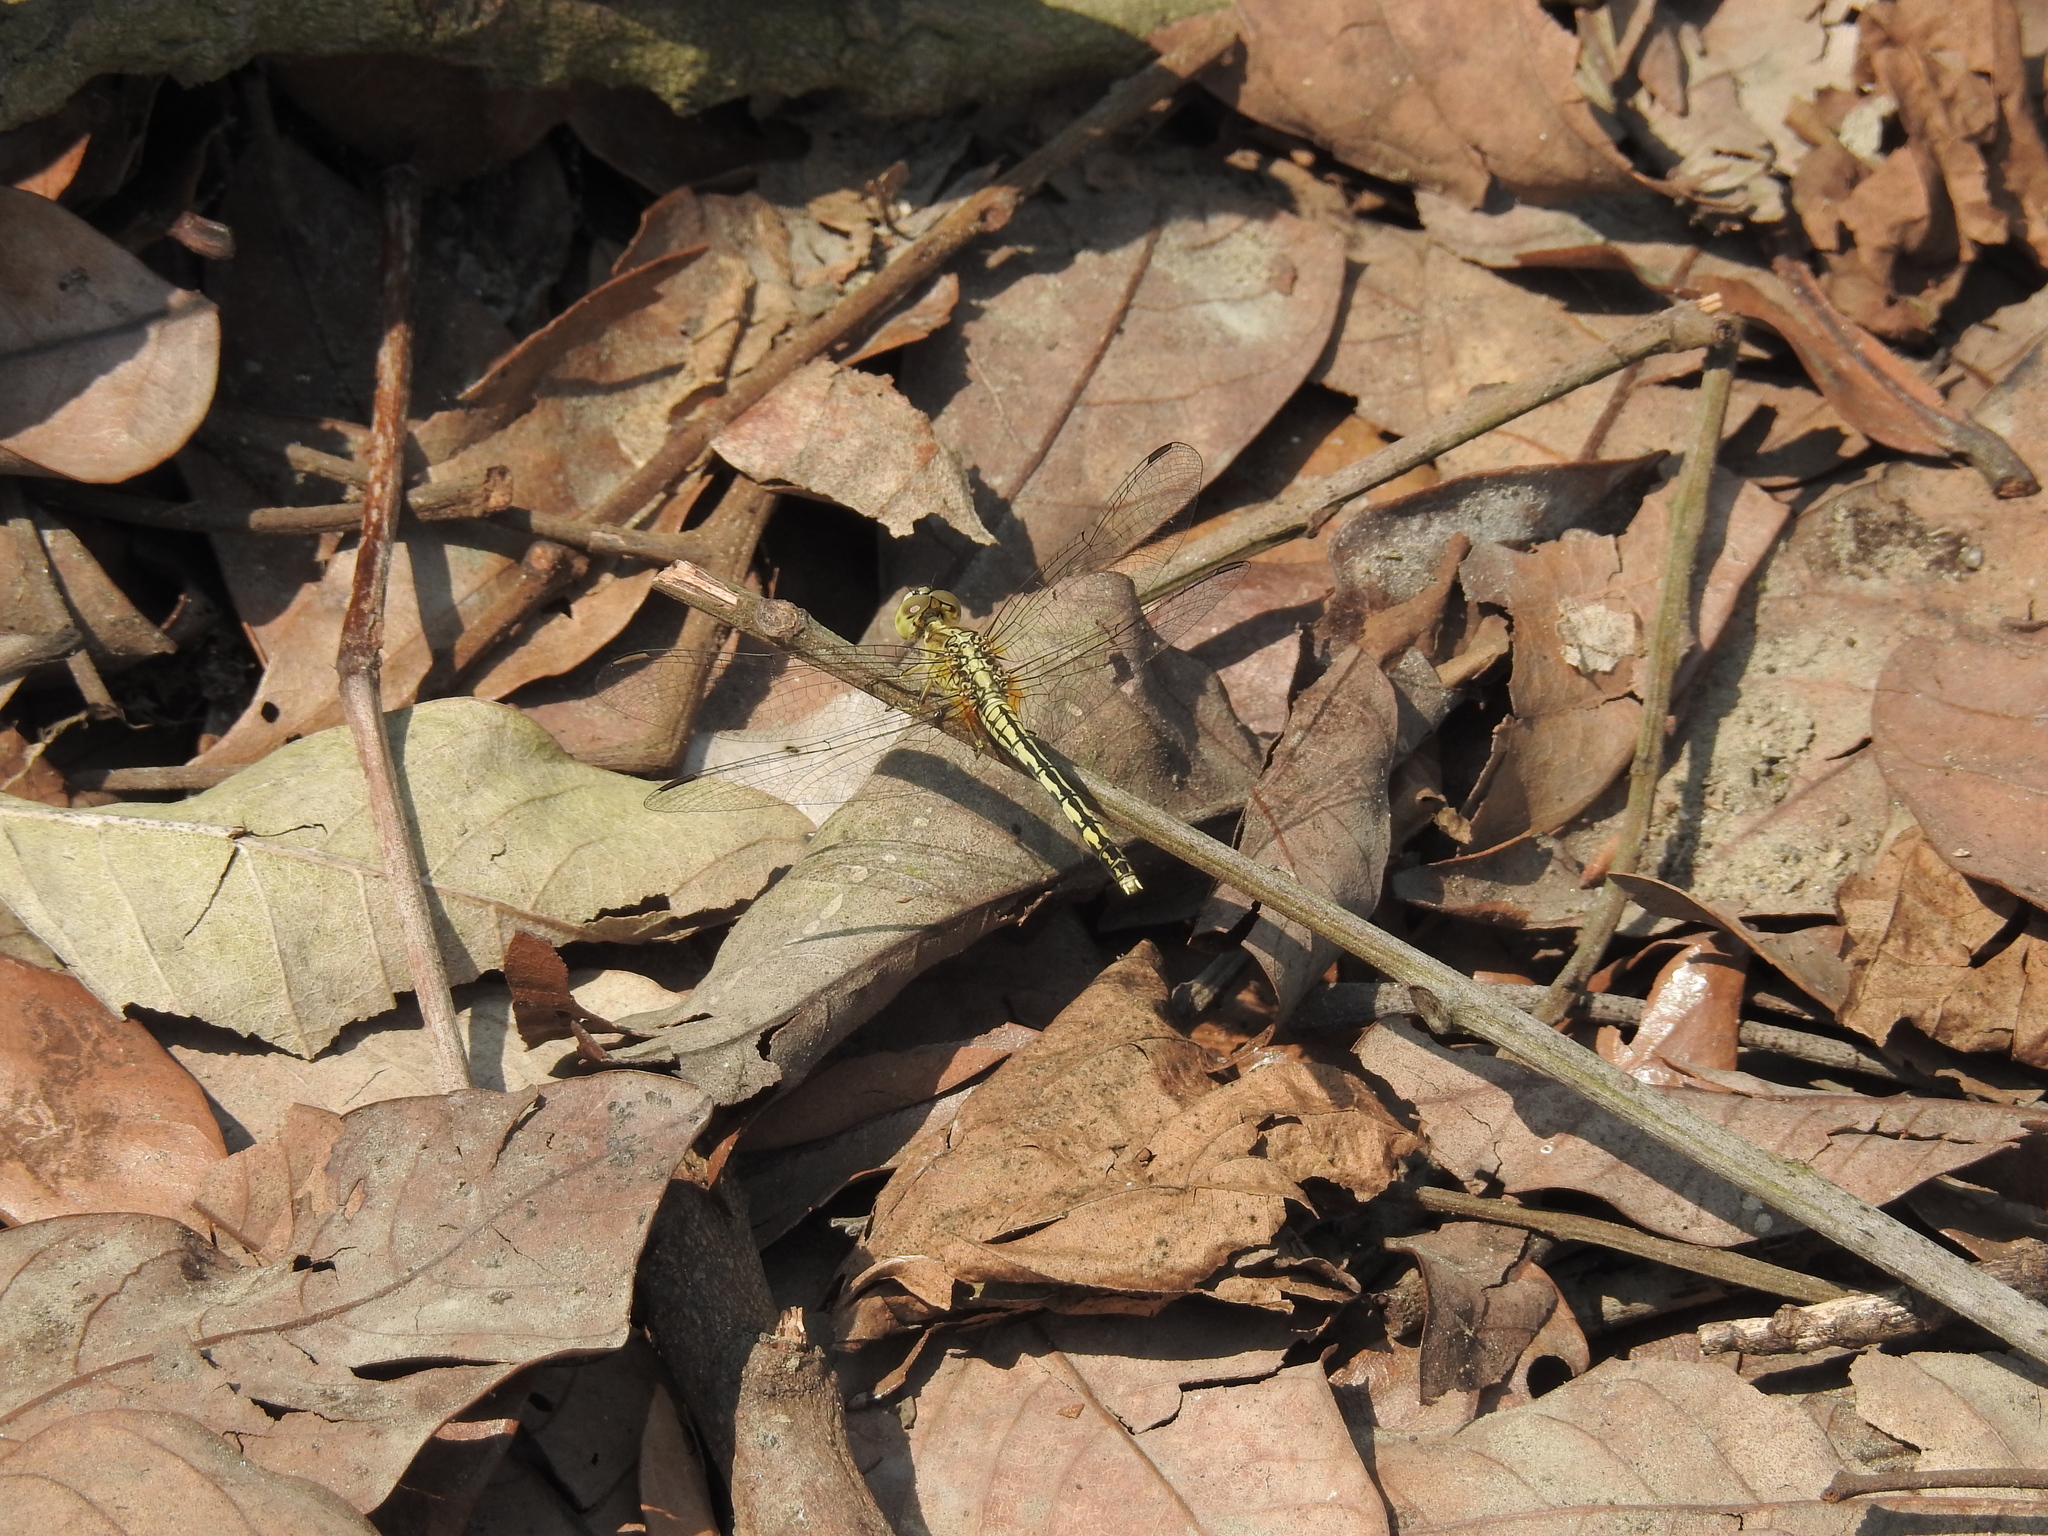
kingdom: Animalia
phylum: Arthropoda
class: Insecta
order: Odonata
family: Libellulidae
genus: Diplacodes
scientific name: Diplacodes trivialis
